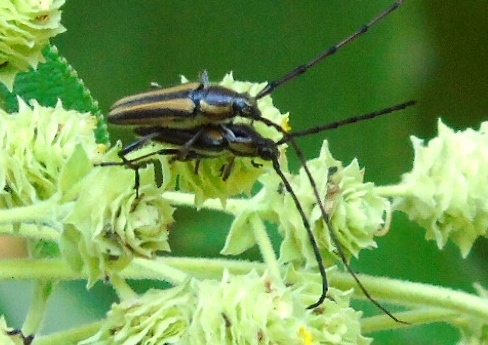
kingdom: Animalia
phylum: Arthropoda
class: Insecta
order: Coleoptera
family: Cerambycidae
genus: Sphaenothecus
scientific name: Sphaenothecus maccartyi
